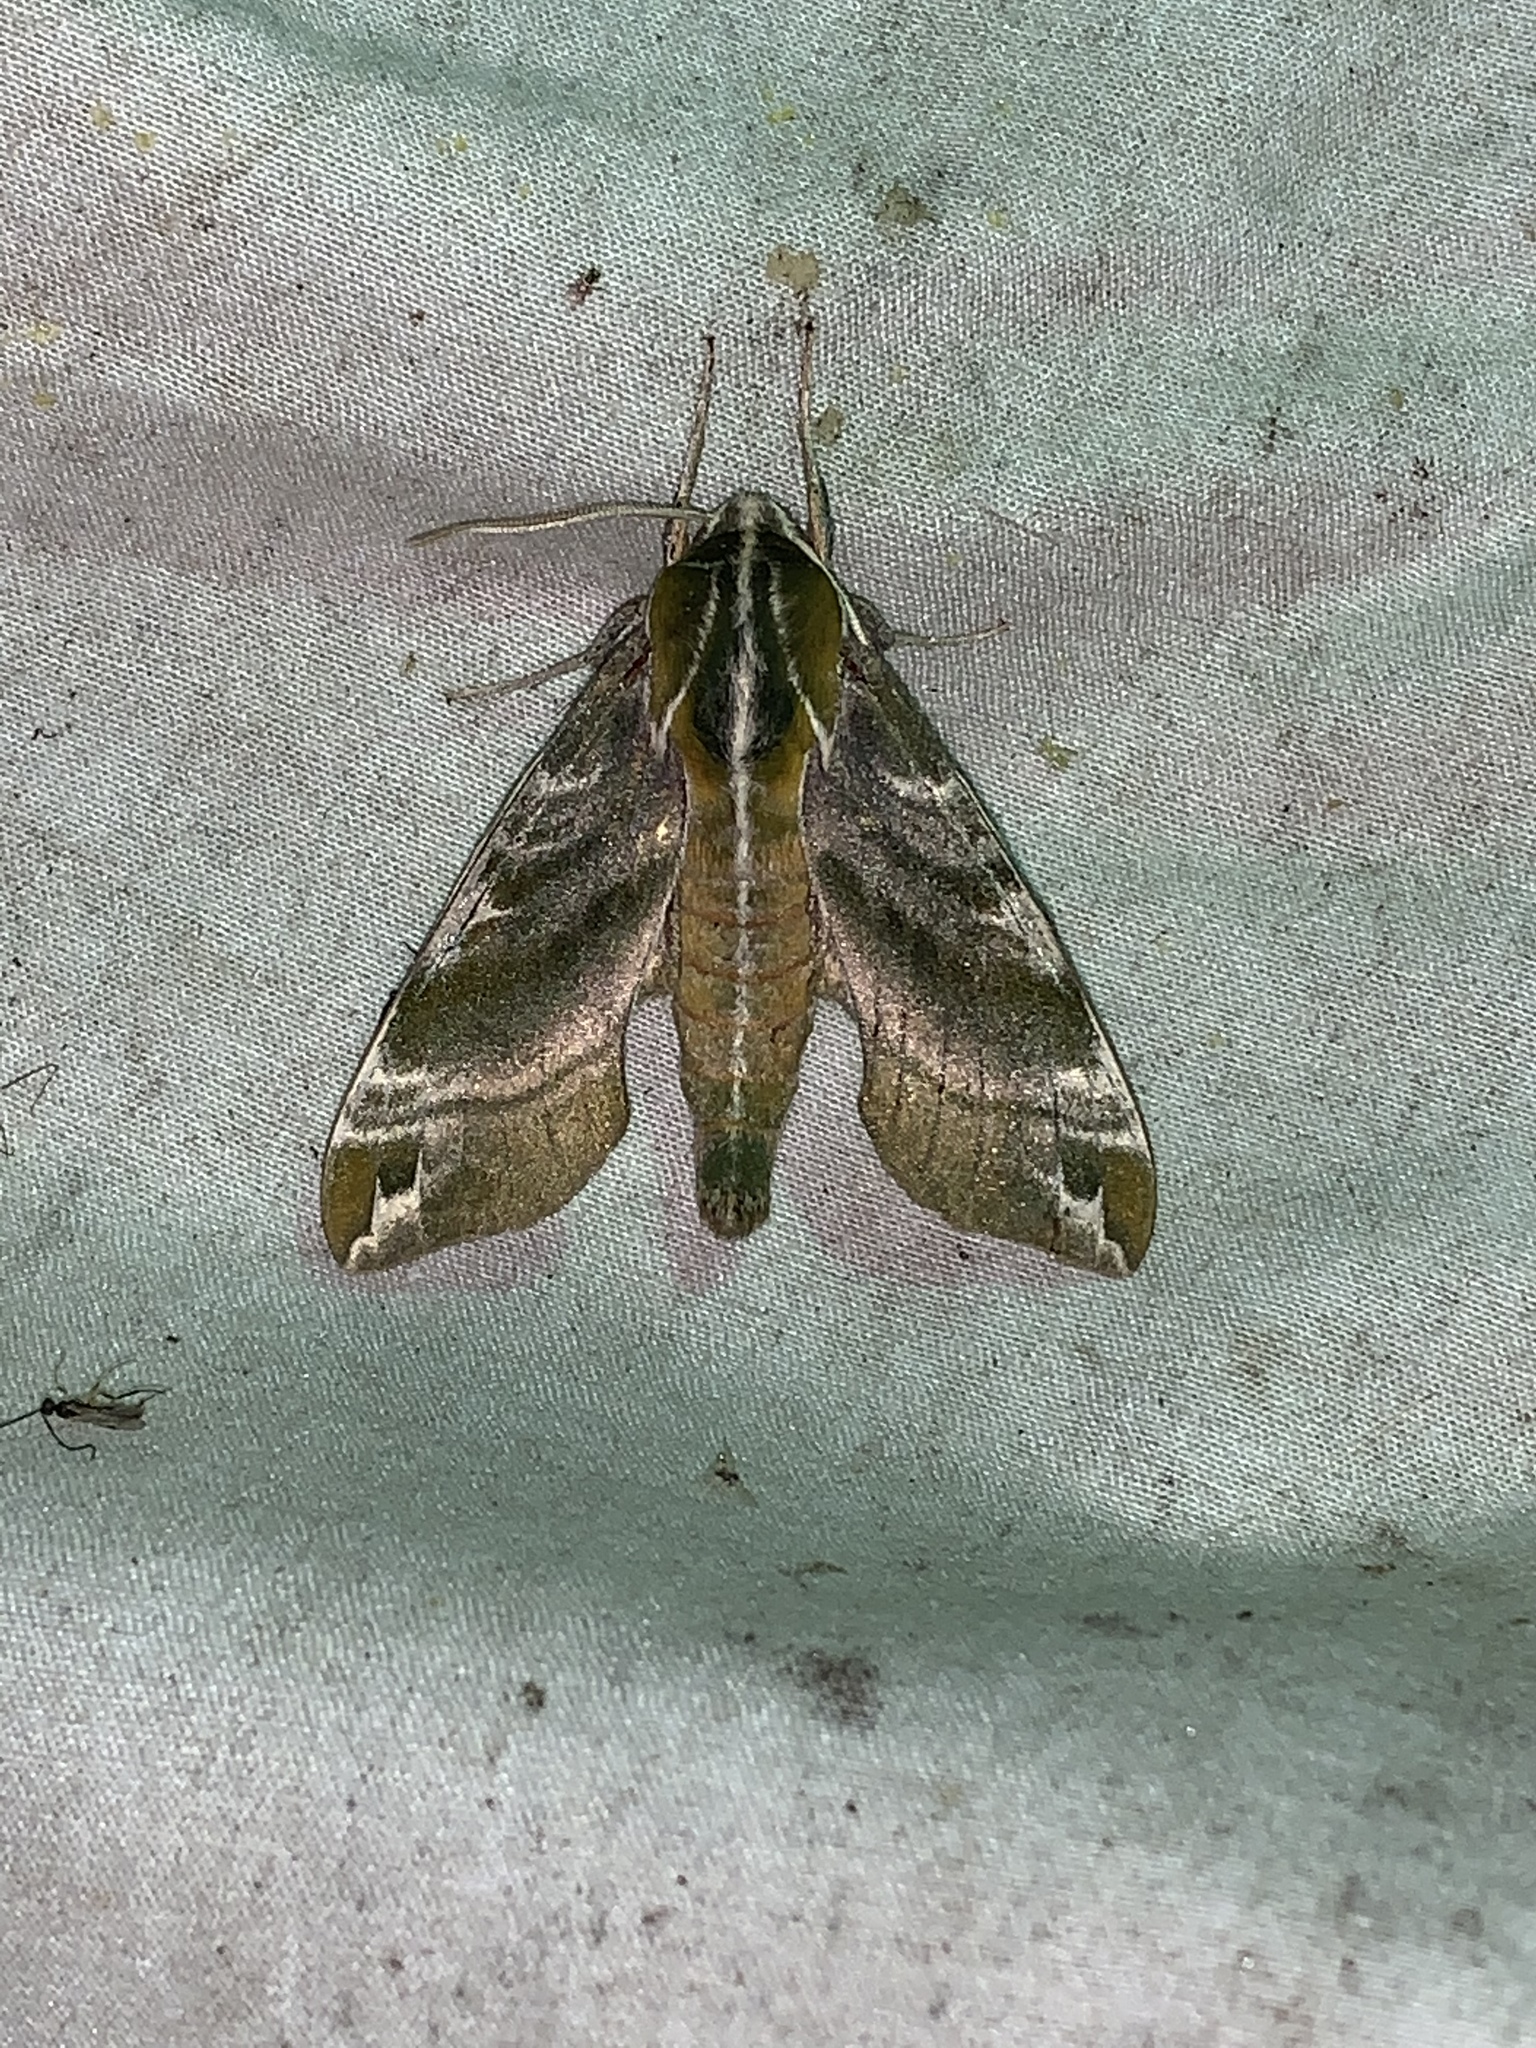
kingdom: Animalia
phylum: Arthropoda
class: Insecta
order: Lepidoptera
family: Sphingidae
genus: Darapsa
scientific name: Darapsa versicolor
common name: Hydrangea sphinx
